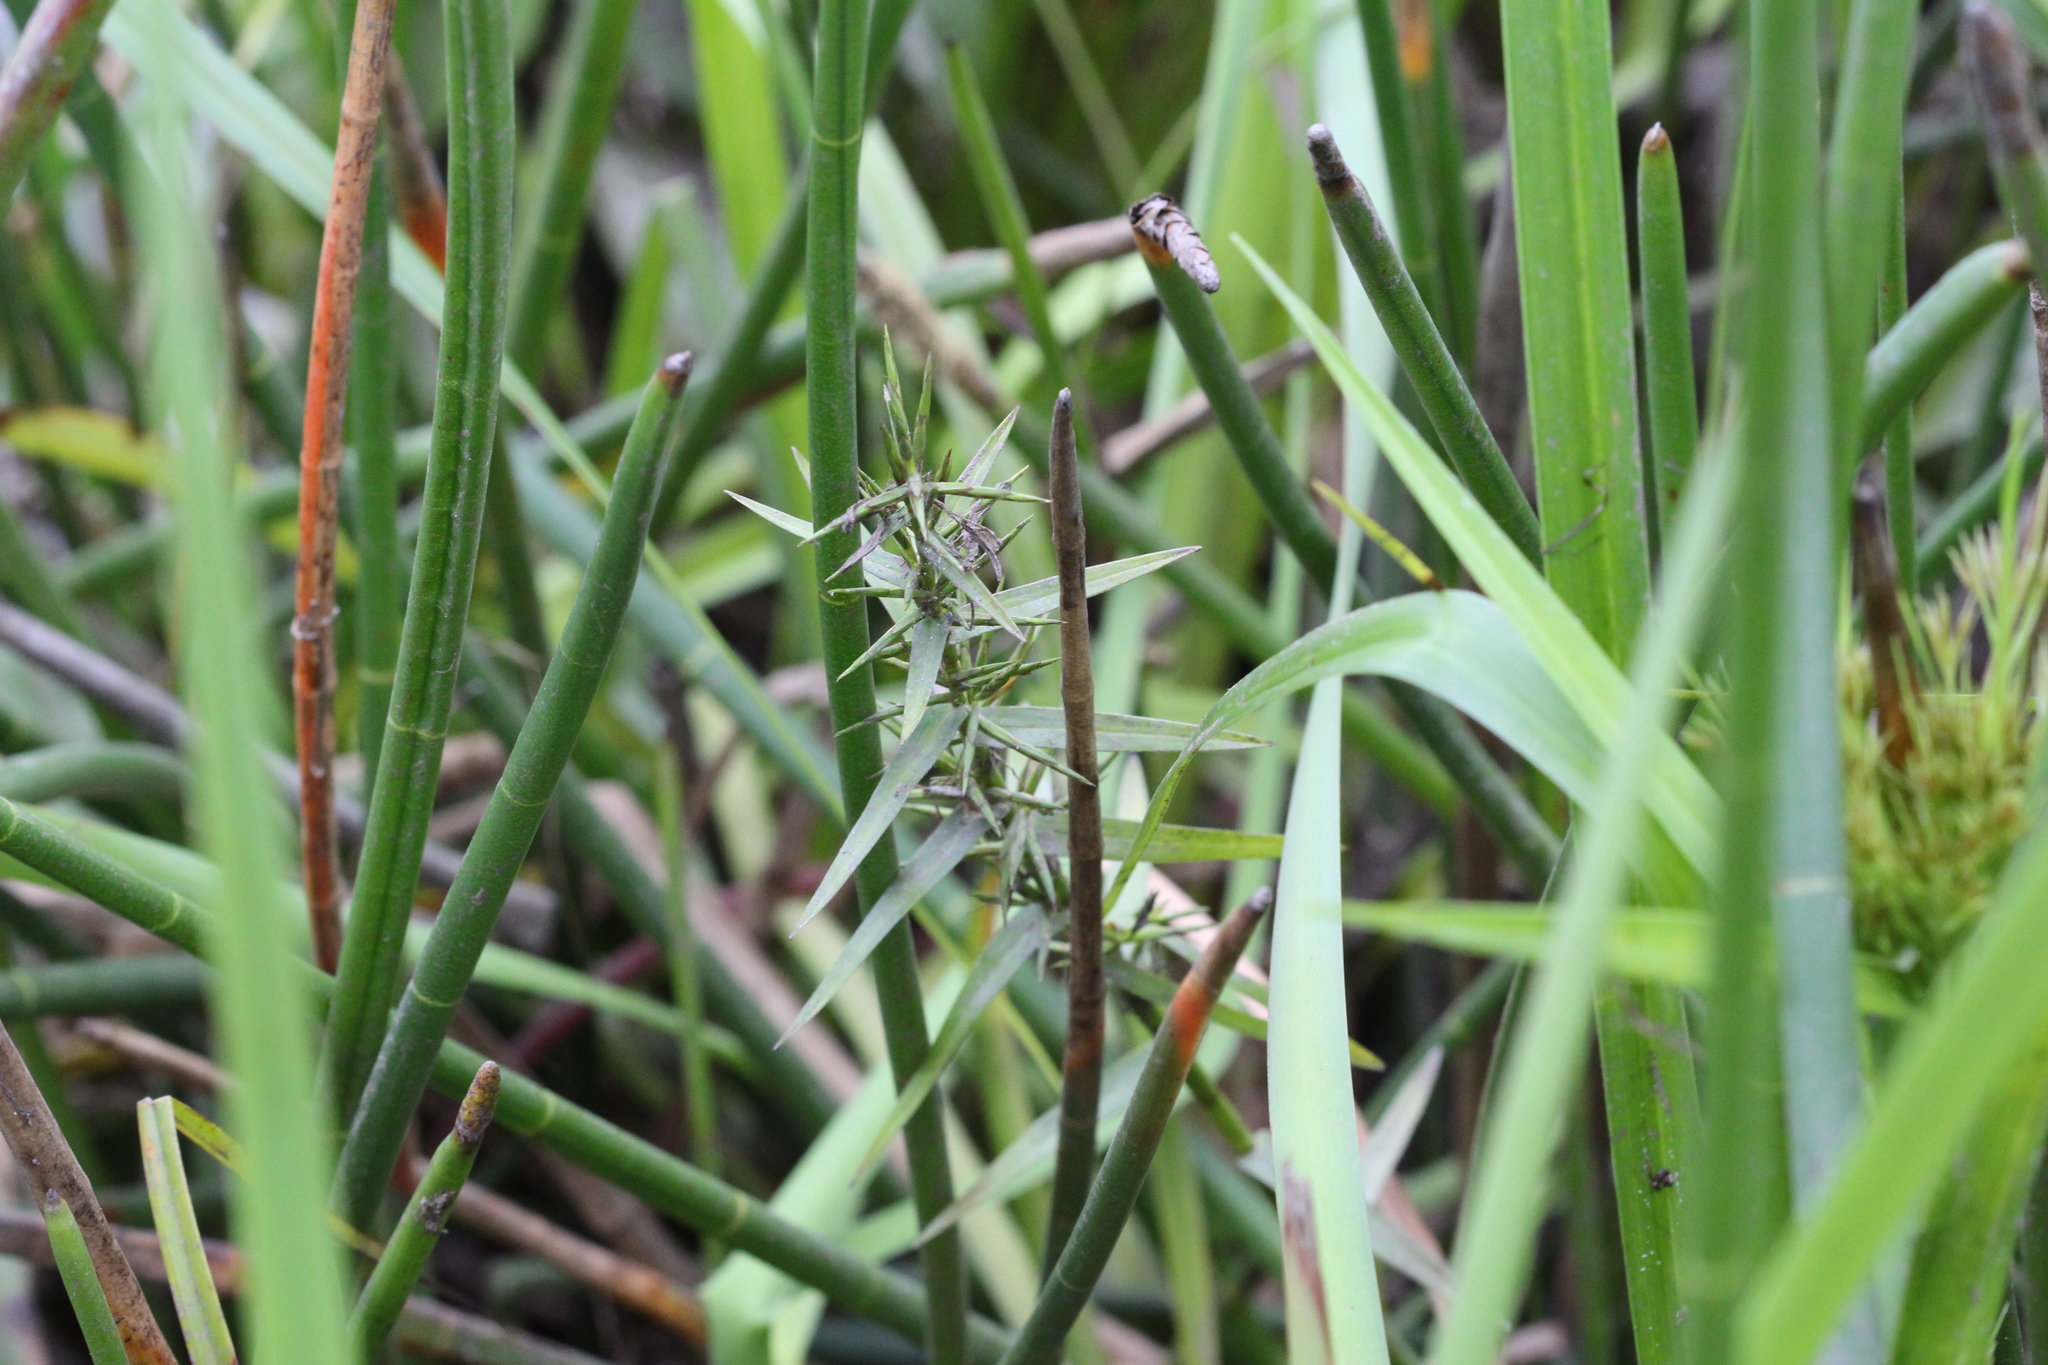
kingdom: Plantae
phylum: Tracheophyta
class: Liliopsida
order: Poales
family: Cyperaceae
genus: Dulichium
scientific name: Dulichium arundinaceum
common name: Three-way sedge
